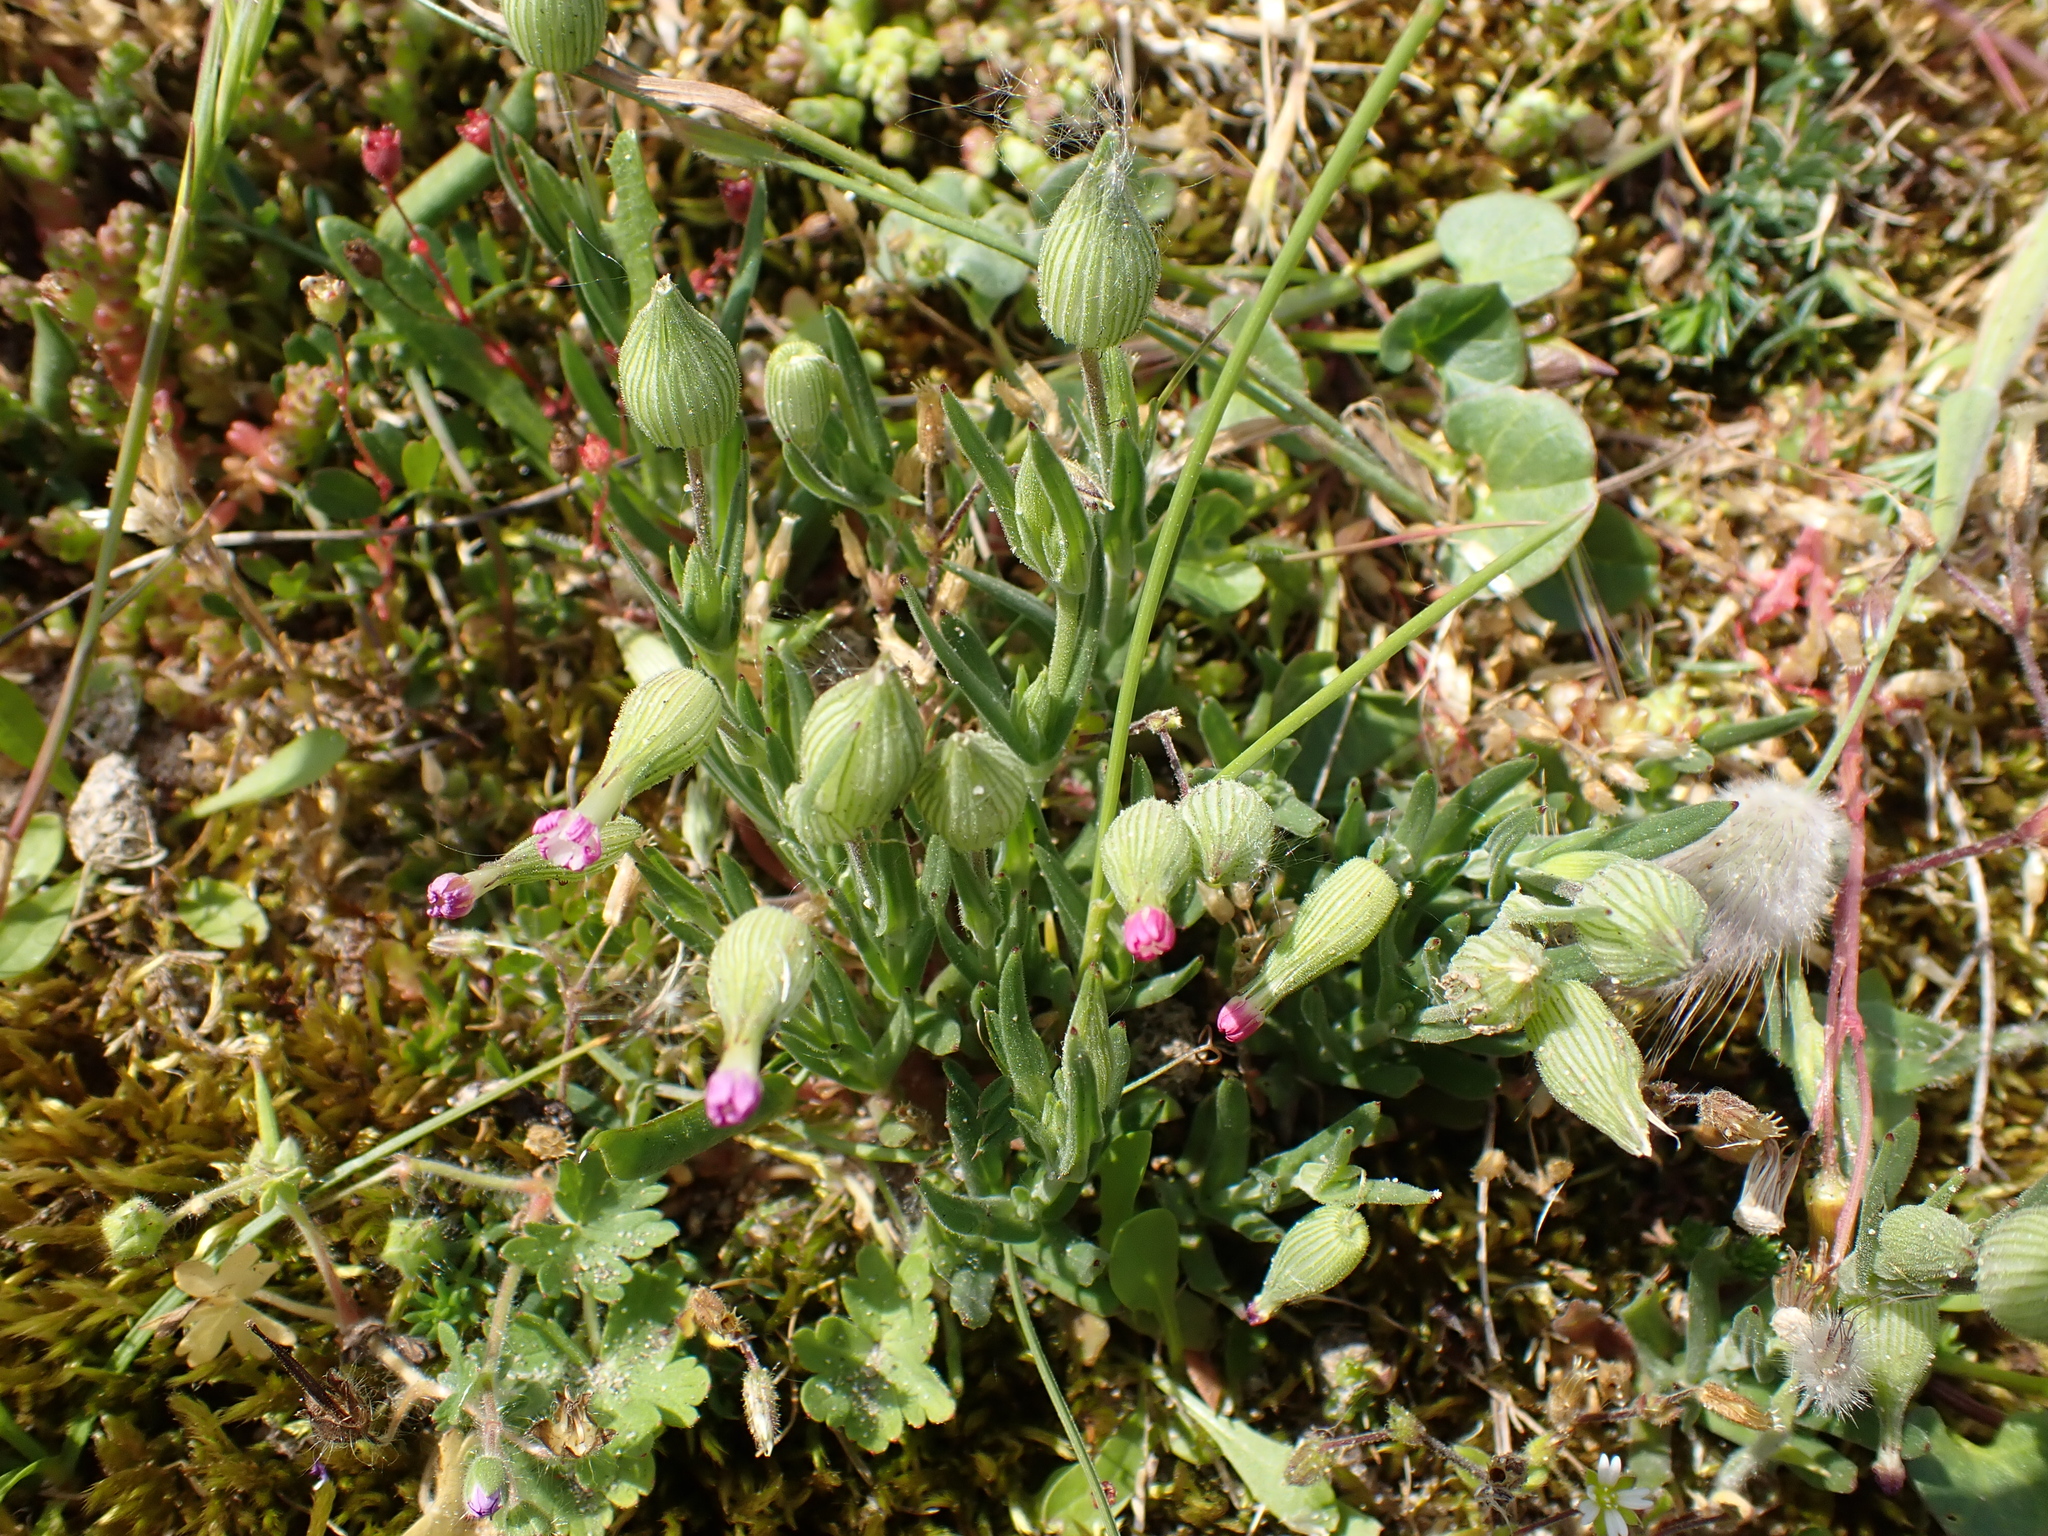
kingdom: Plantae
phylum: Tracheophyta
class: Magnoliopsida
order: Caryophyllales
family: Caryophyllaceae
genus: Silene
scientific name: Silene conica
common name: Sand catchfly
